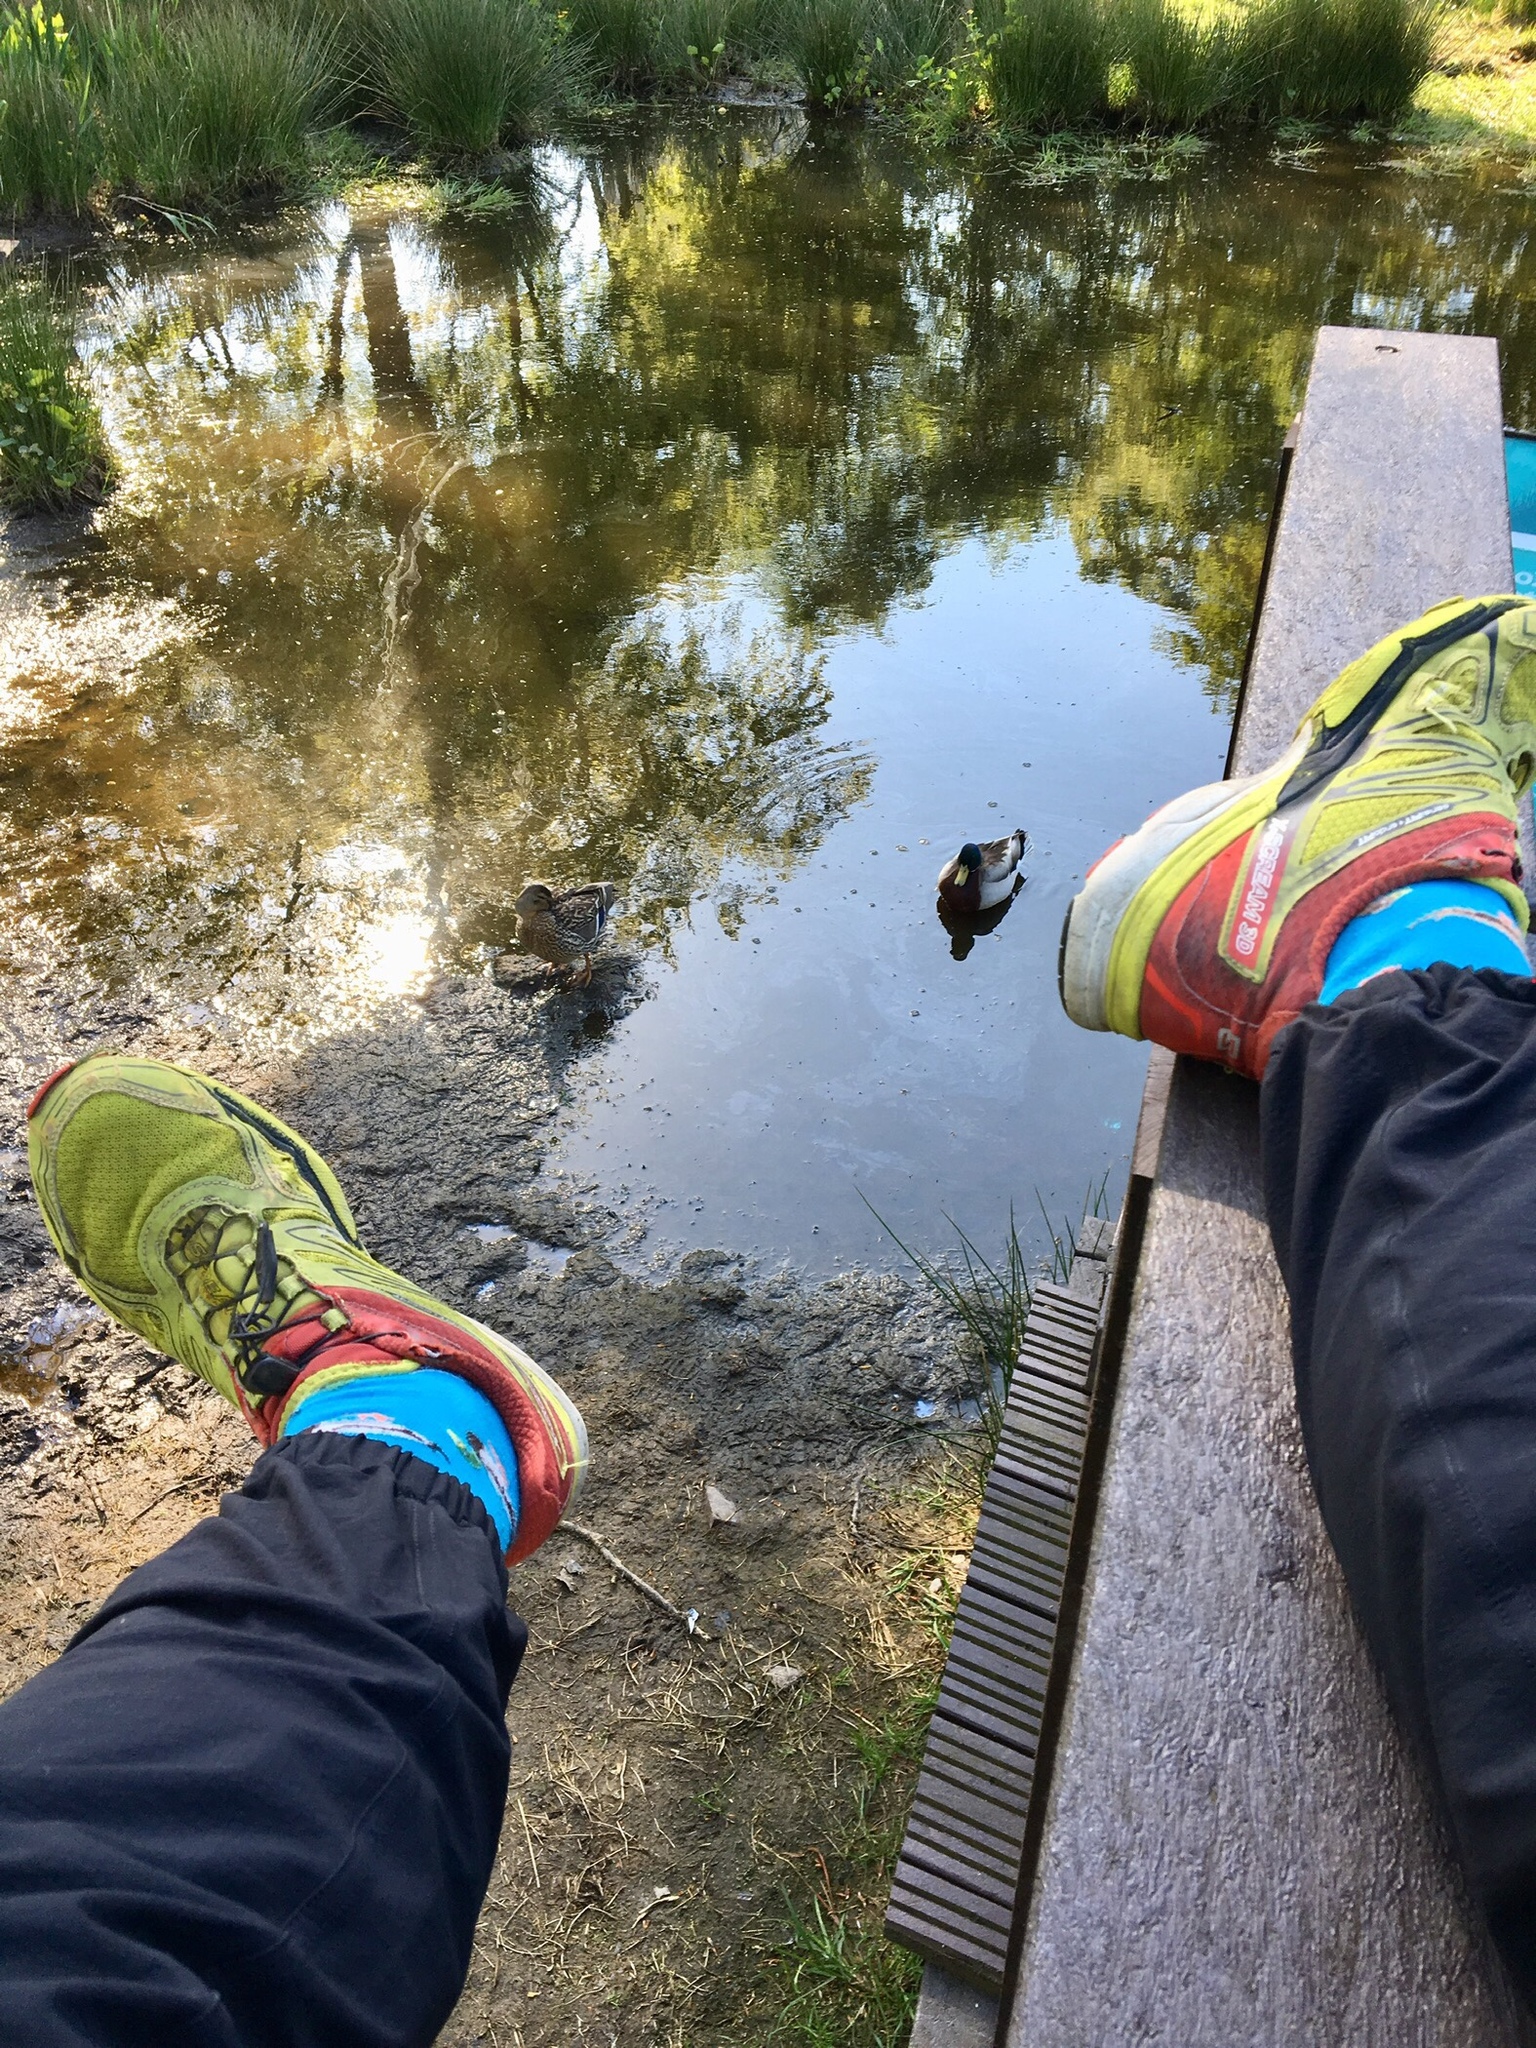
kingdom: Animalia
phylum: Chordata
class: Aves
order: Anseriformes
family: Anatidae
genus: Anas
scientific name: Anas platyrhynchos
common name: Mallard
